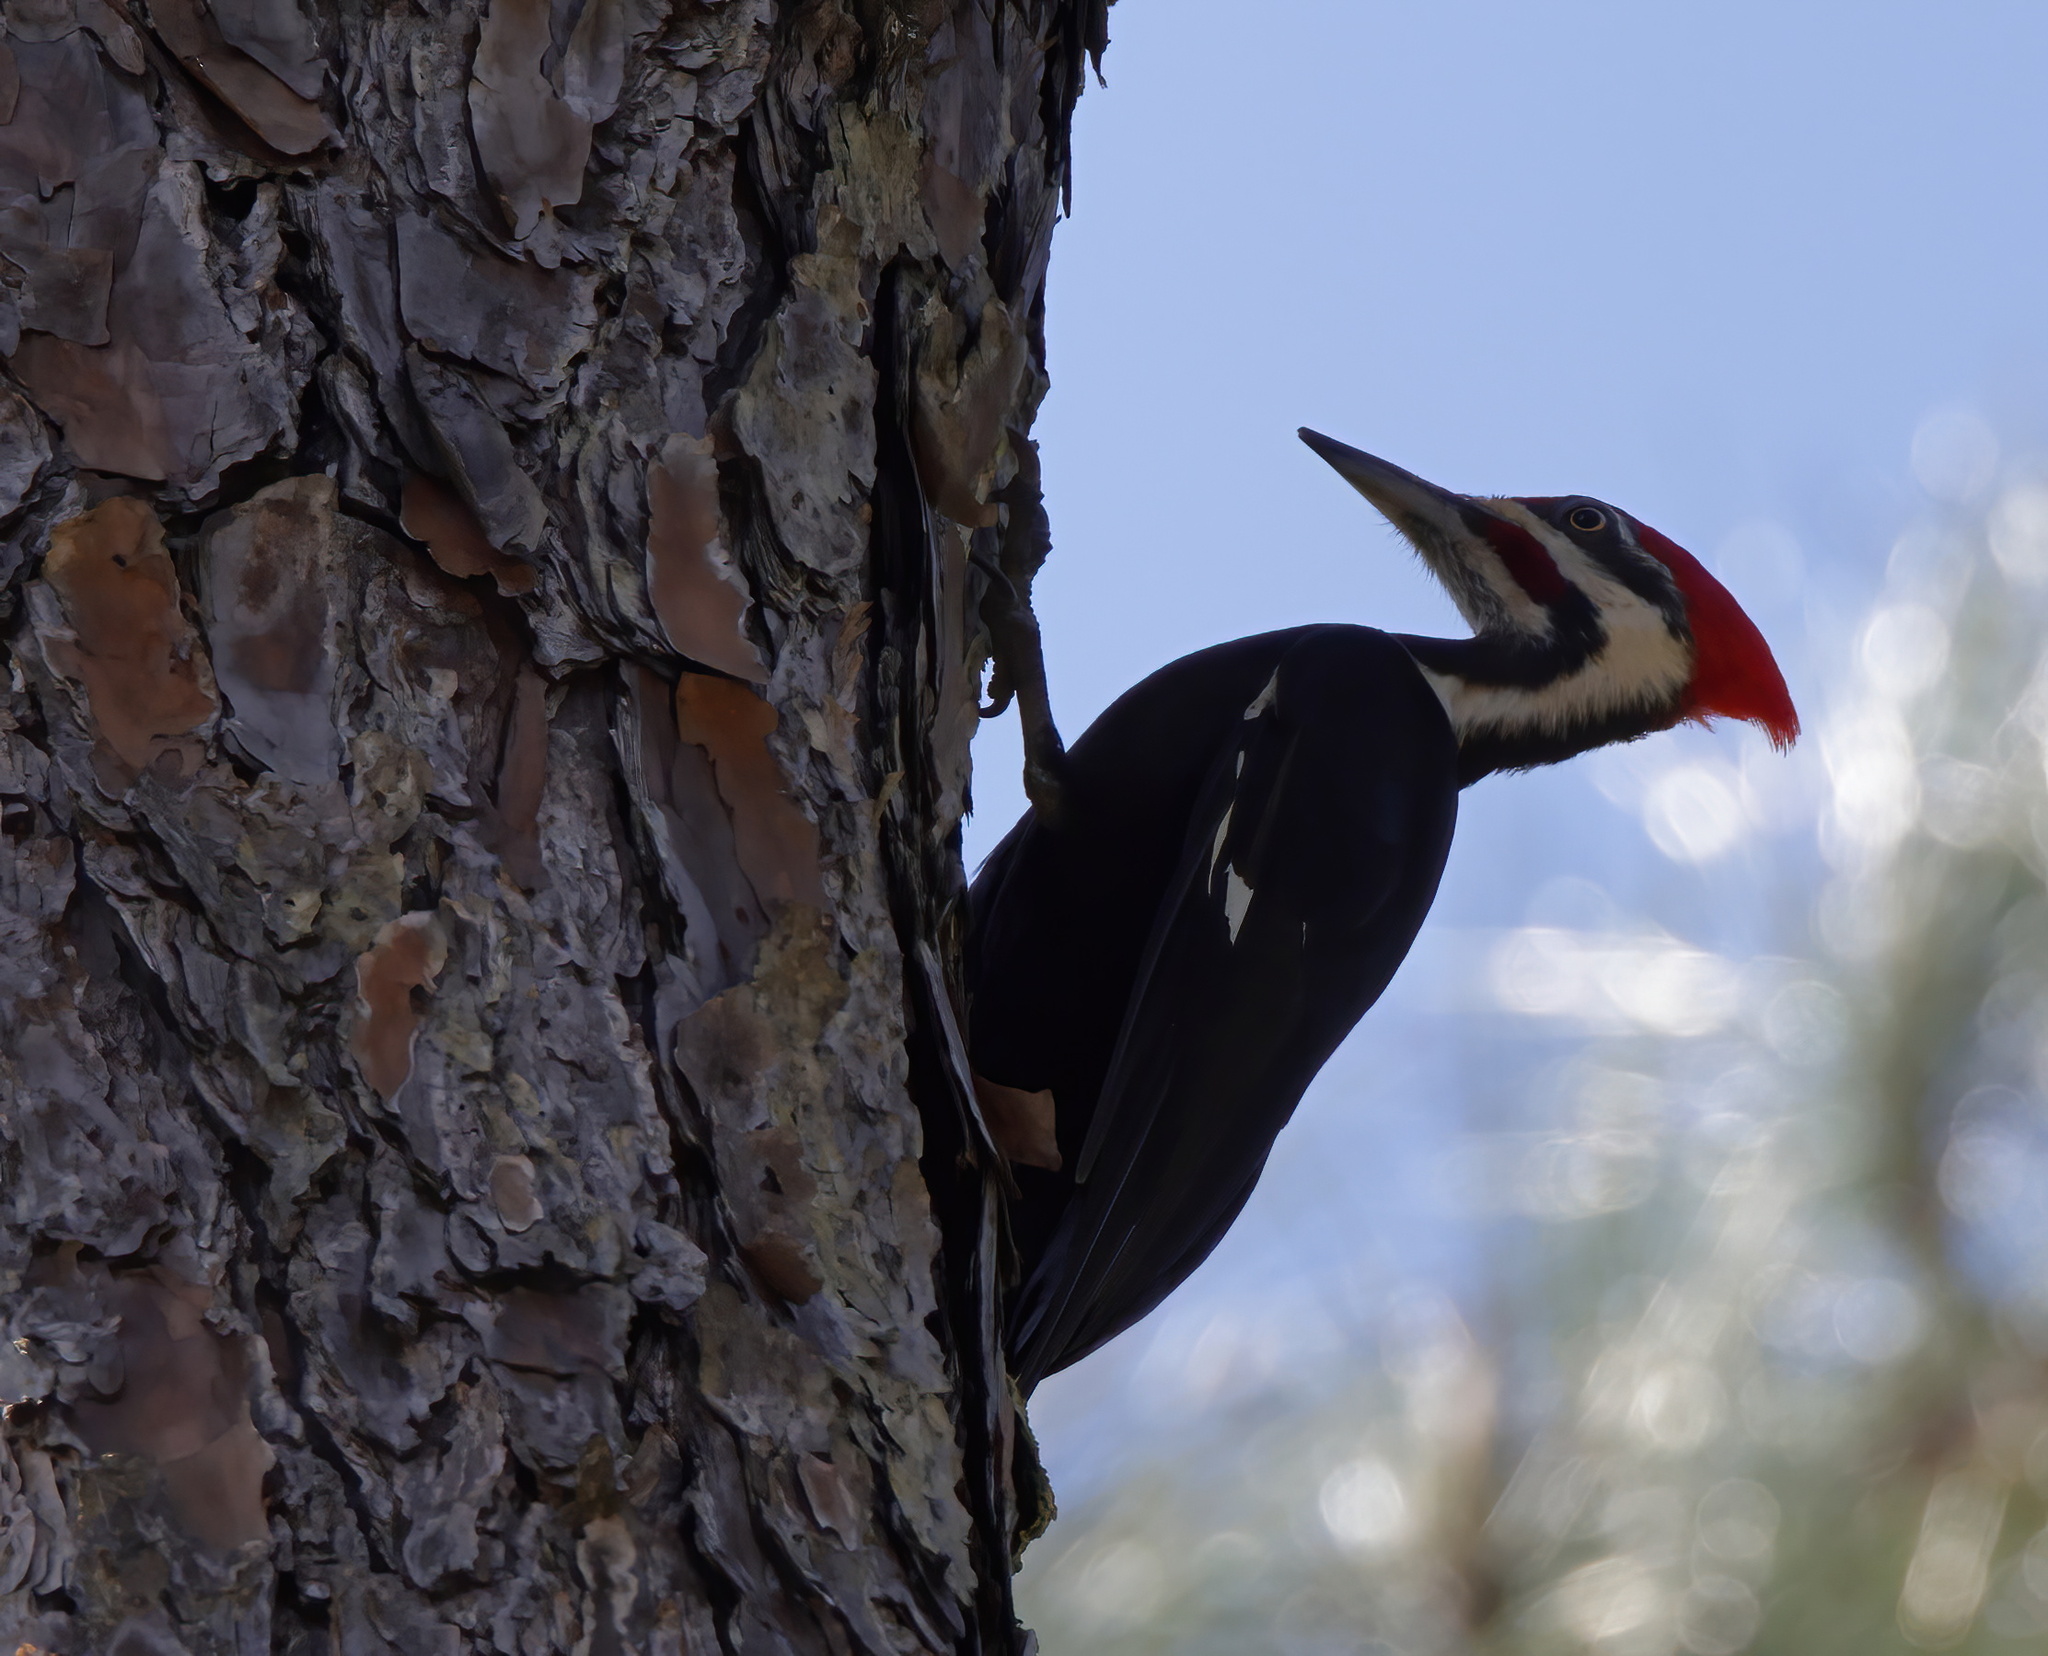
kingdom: Animalia
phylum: Chordata
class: Aves
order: Piciformes
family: Picidae
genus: Dryocopus
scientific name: Dryocopus pileatus
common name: Pileated woodpecker
